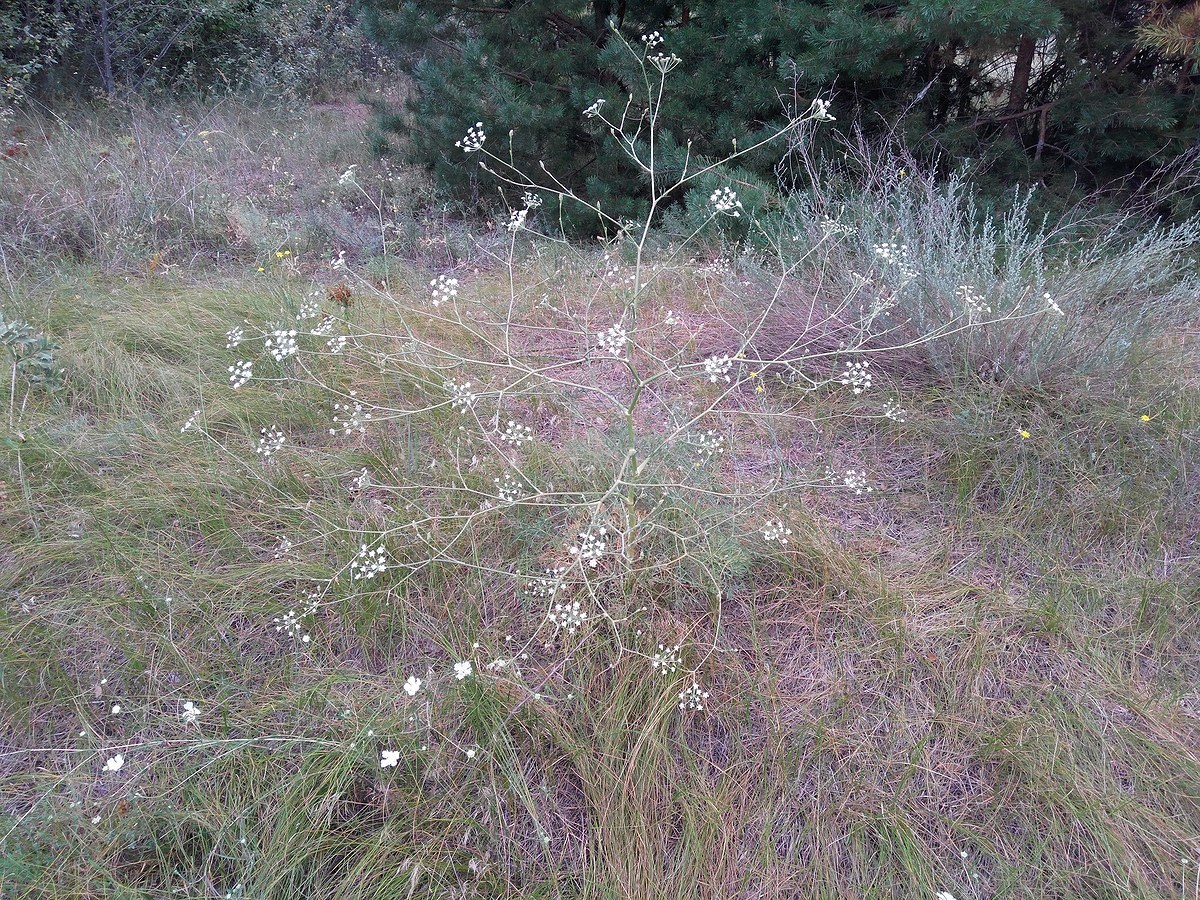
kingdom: Plantae
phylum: Tracheophyta
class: Magnoliopsida
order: Apiales
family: Apiaceae
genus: Seseli
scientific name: Seseli arenarium
